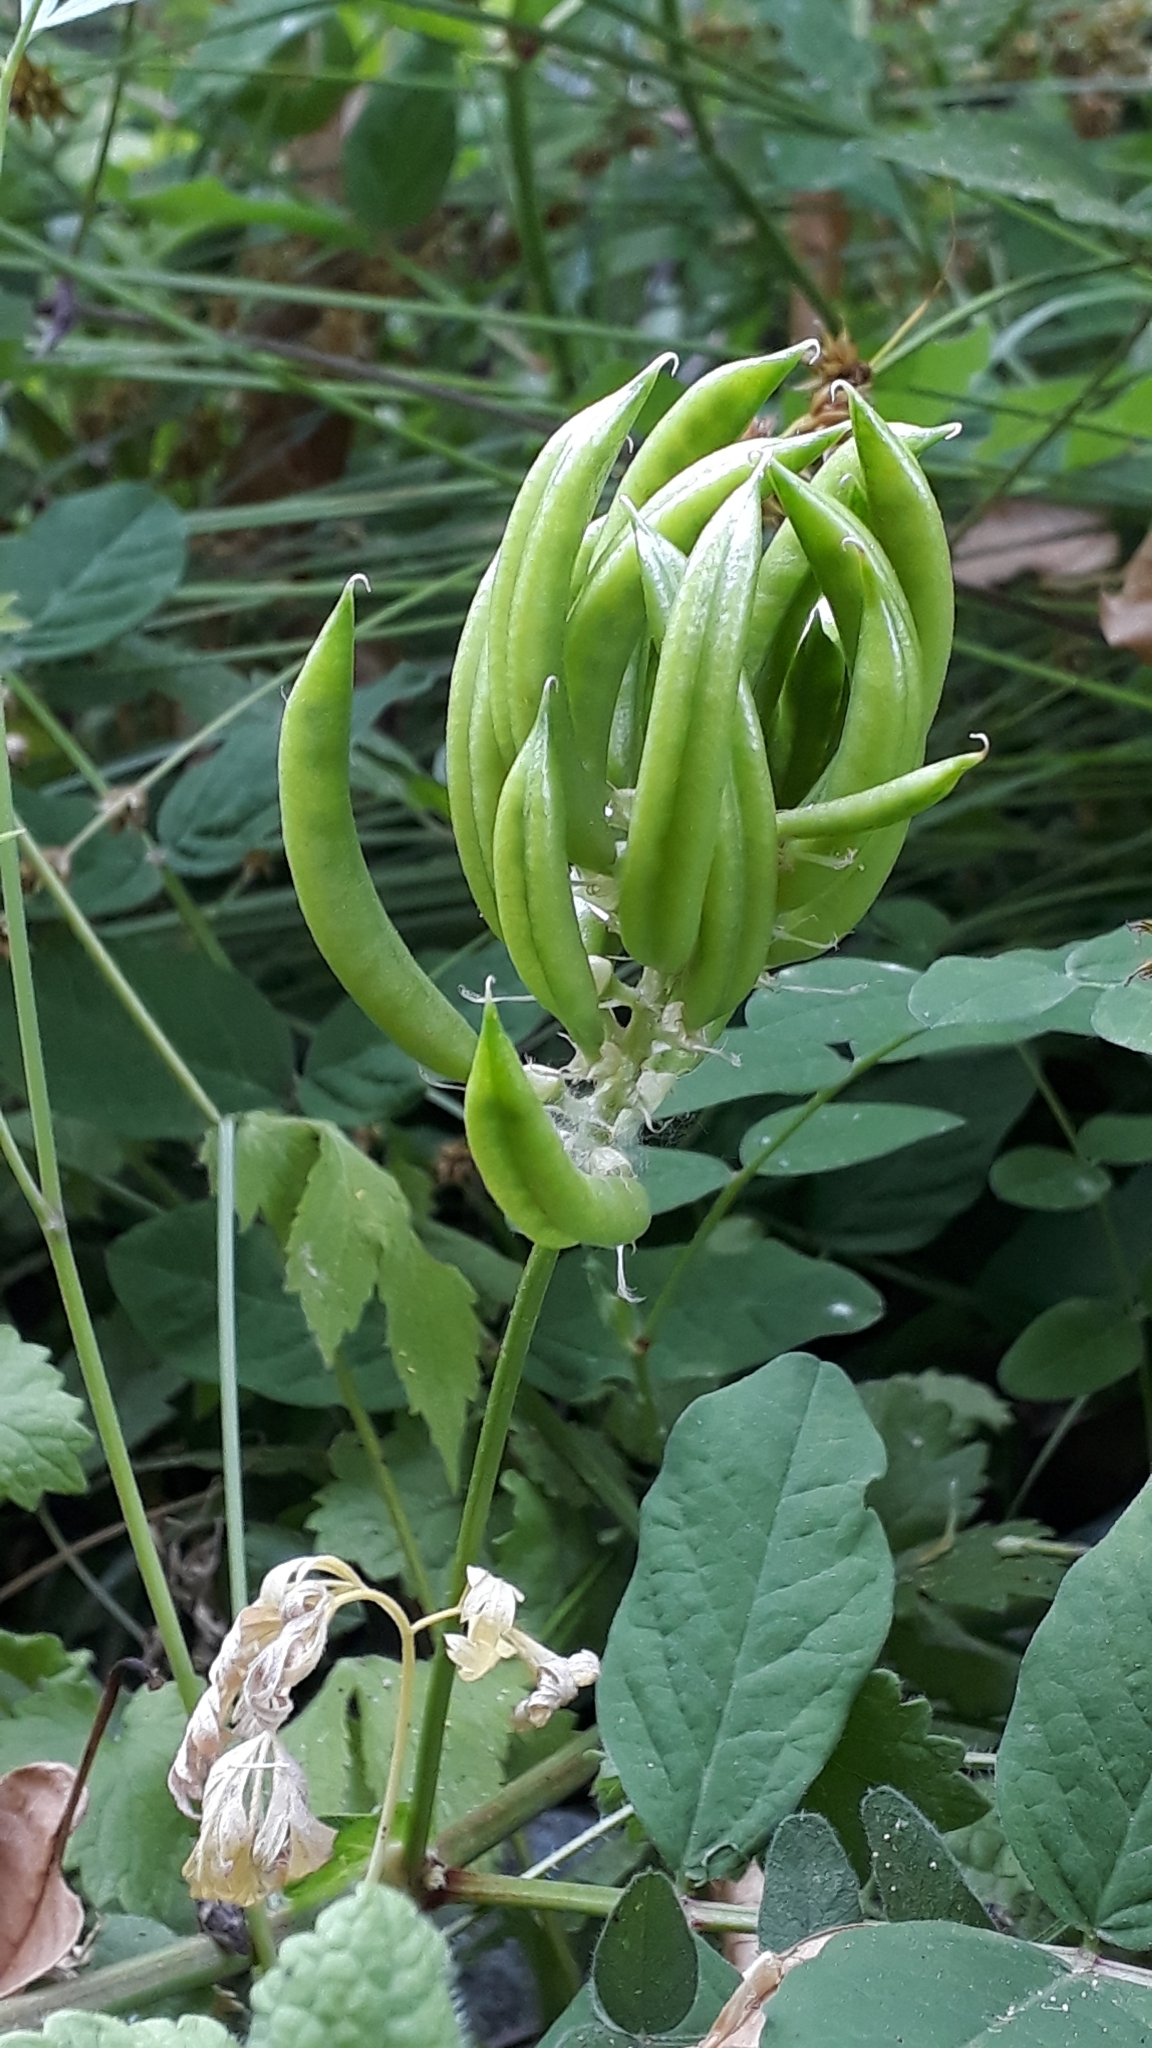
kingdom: Plantae
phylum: Tracheophyta
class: Magnoliopsida
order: Fabales
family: Fabaceae
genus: Astragalus
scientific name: Astragalus glycyphyllos
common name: Wild liquorice
